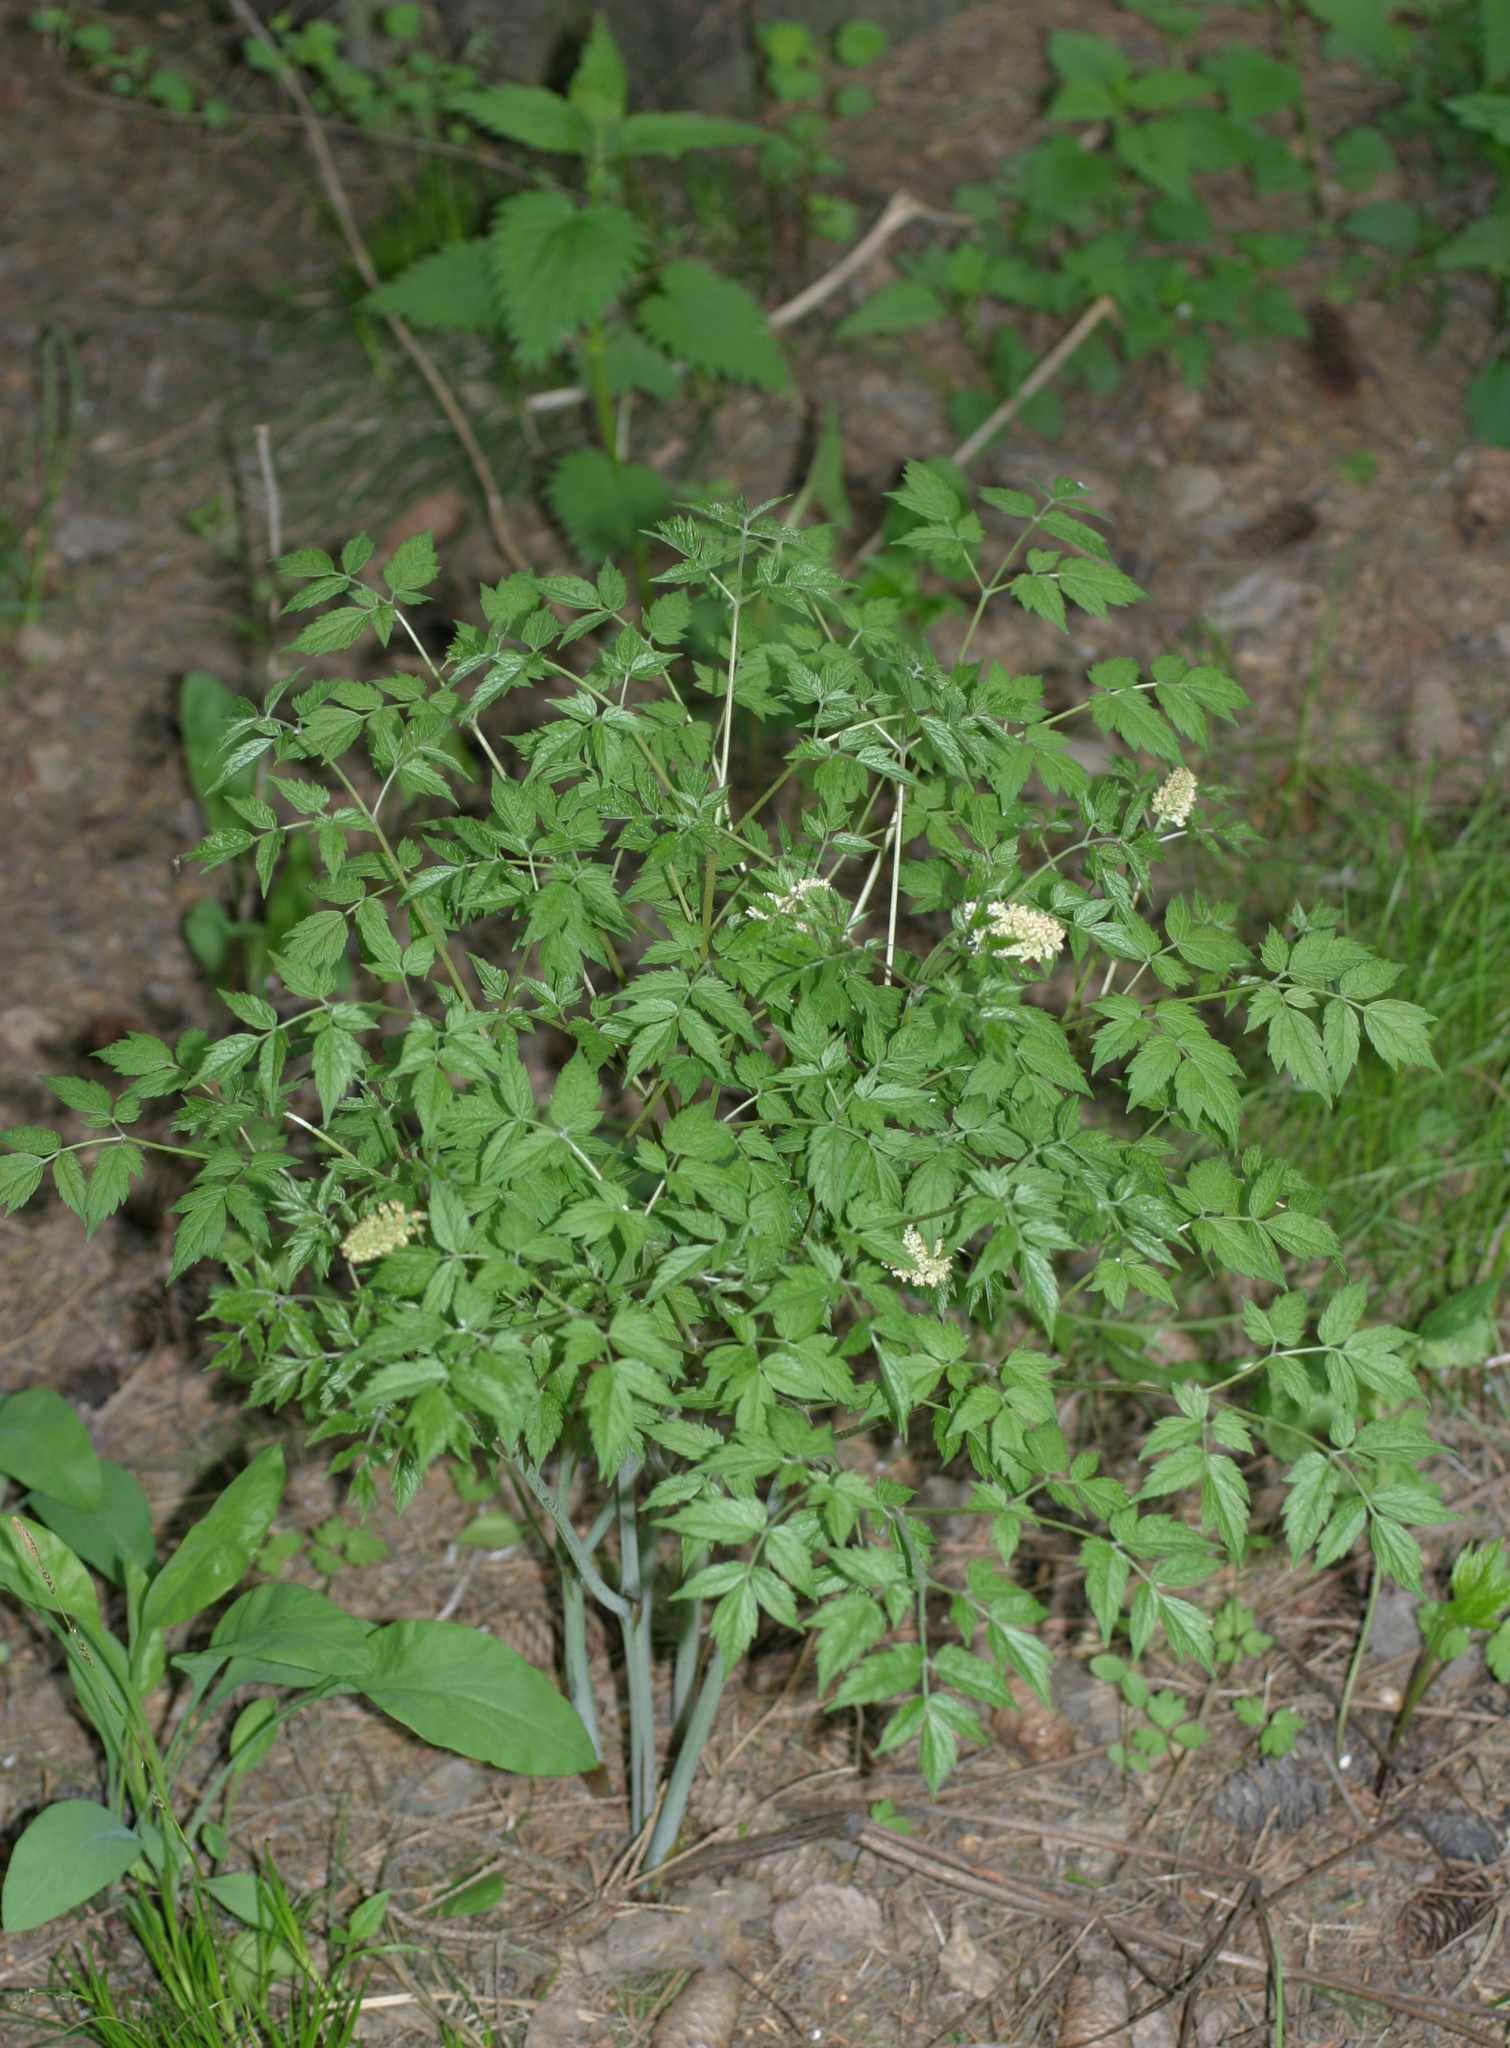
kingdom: Plantae
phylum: Tracheophyta
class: Magnoliopsida
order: Ranunculales
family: Ranunculaceae
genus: Actaea
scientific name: Actaea erythrocarpa
